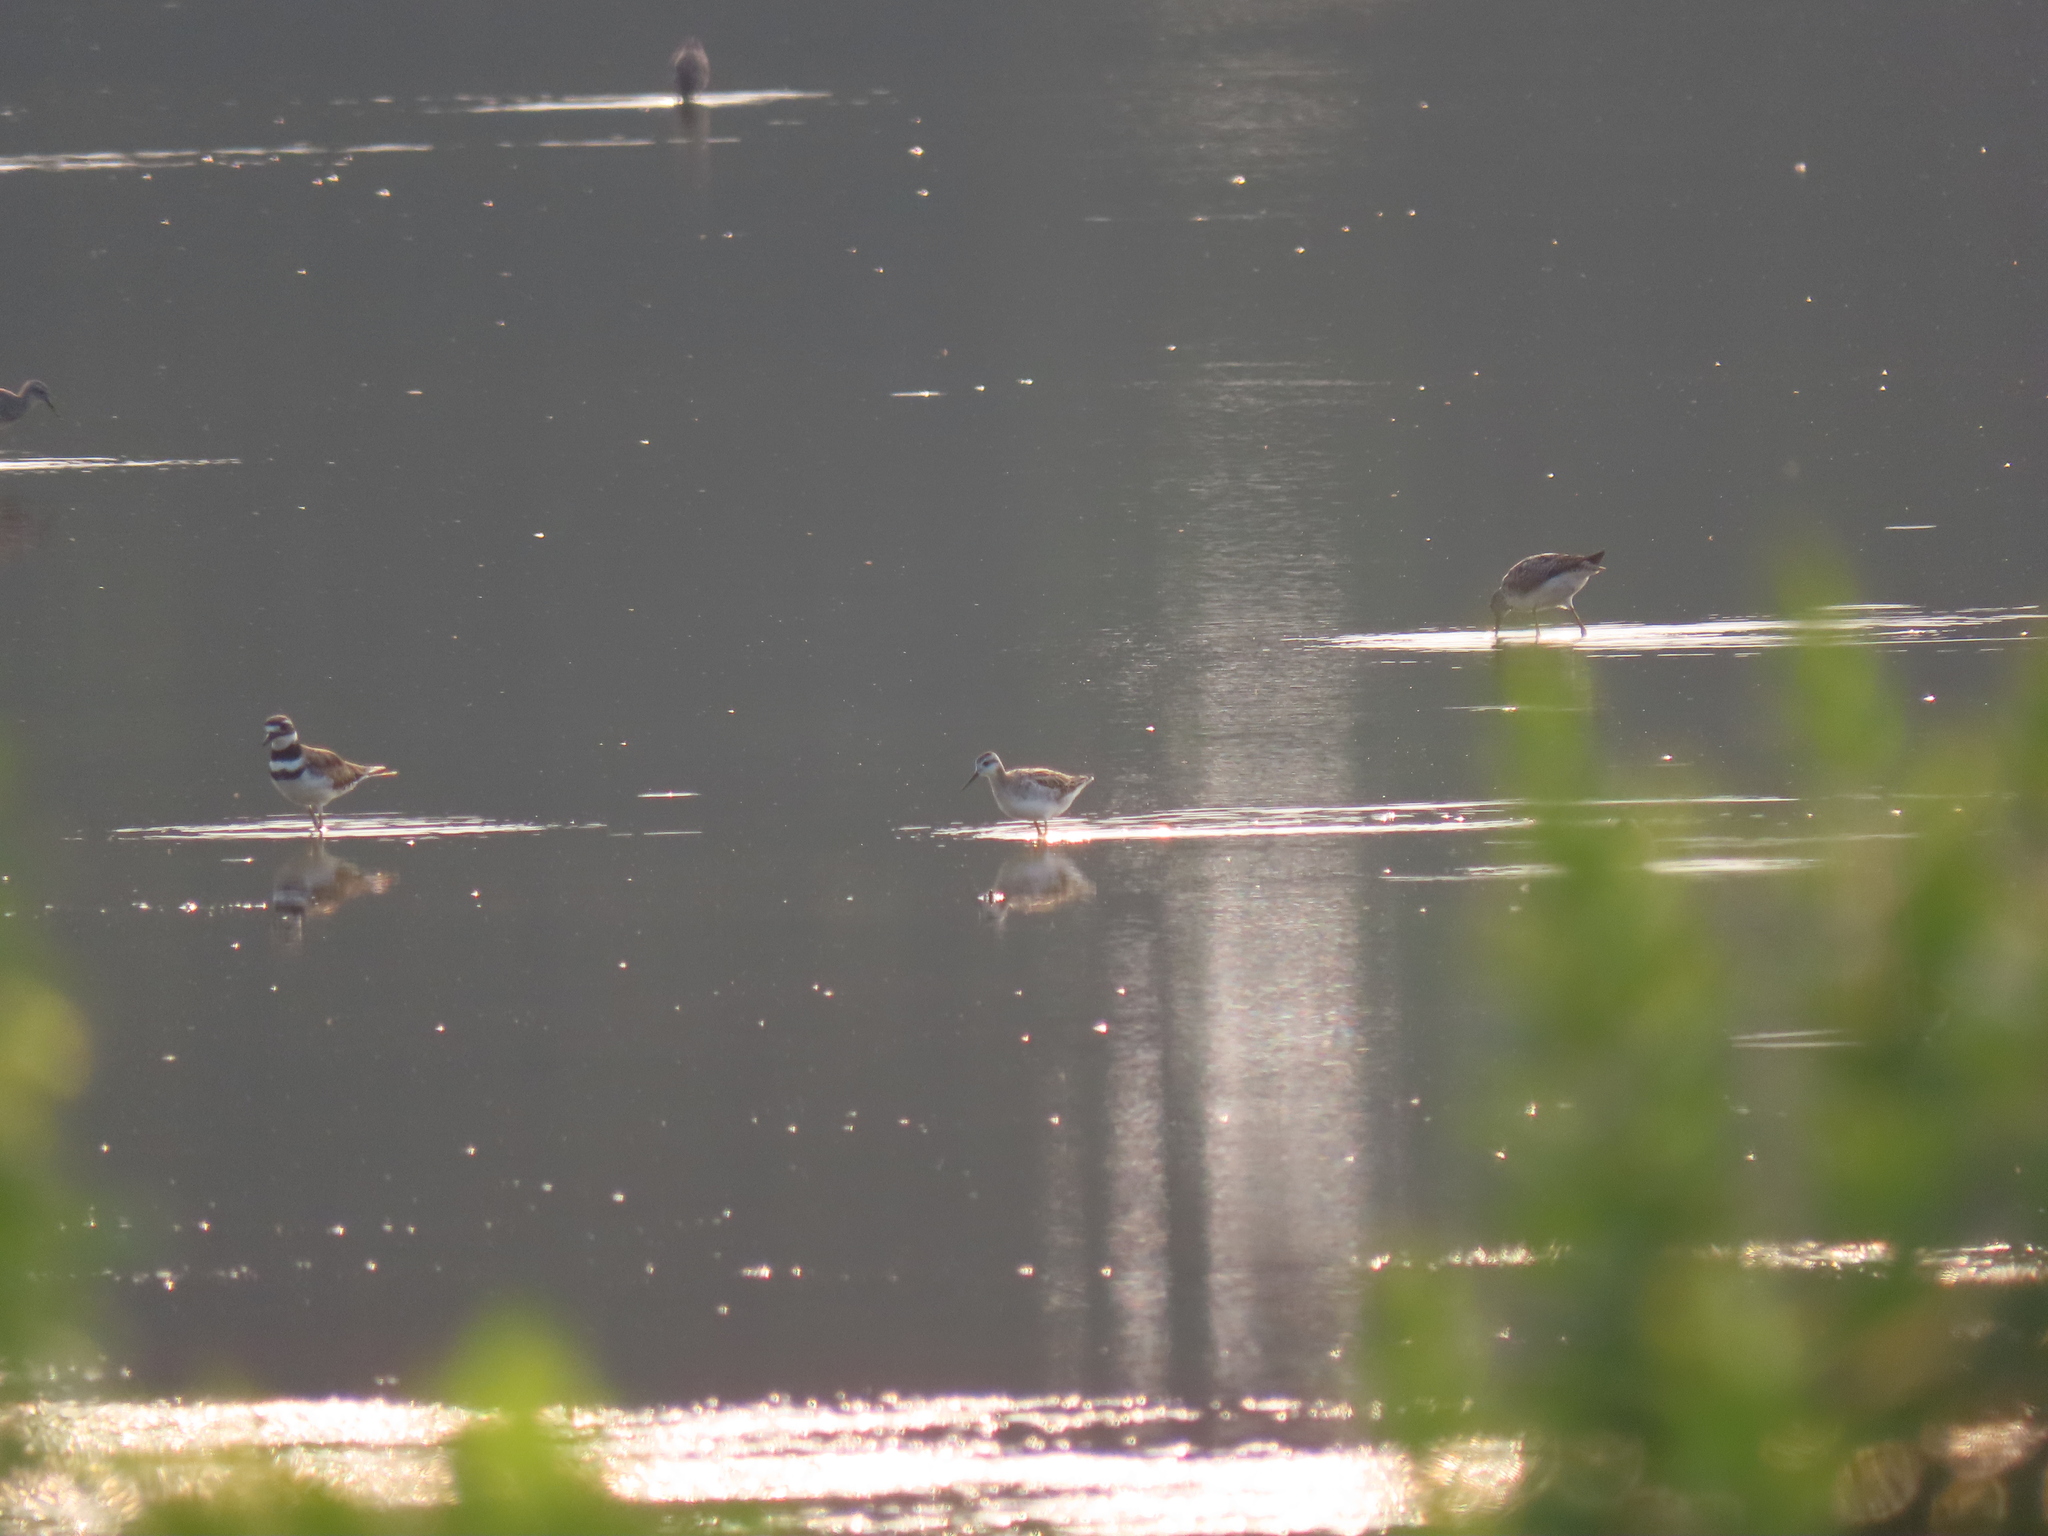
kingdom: Animalia
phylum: Chordata
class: Aves
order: Charadriiformes
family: Scolopacidae
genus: Phalaropus
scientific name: Phalaropus tricolor
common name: Wilson's phalarope
